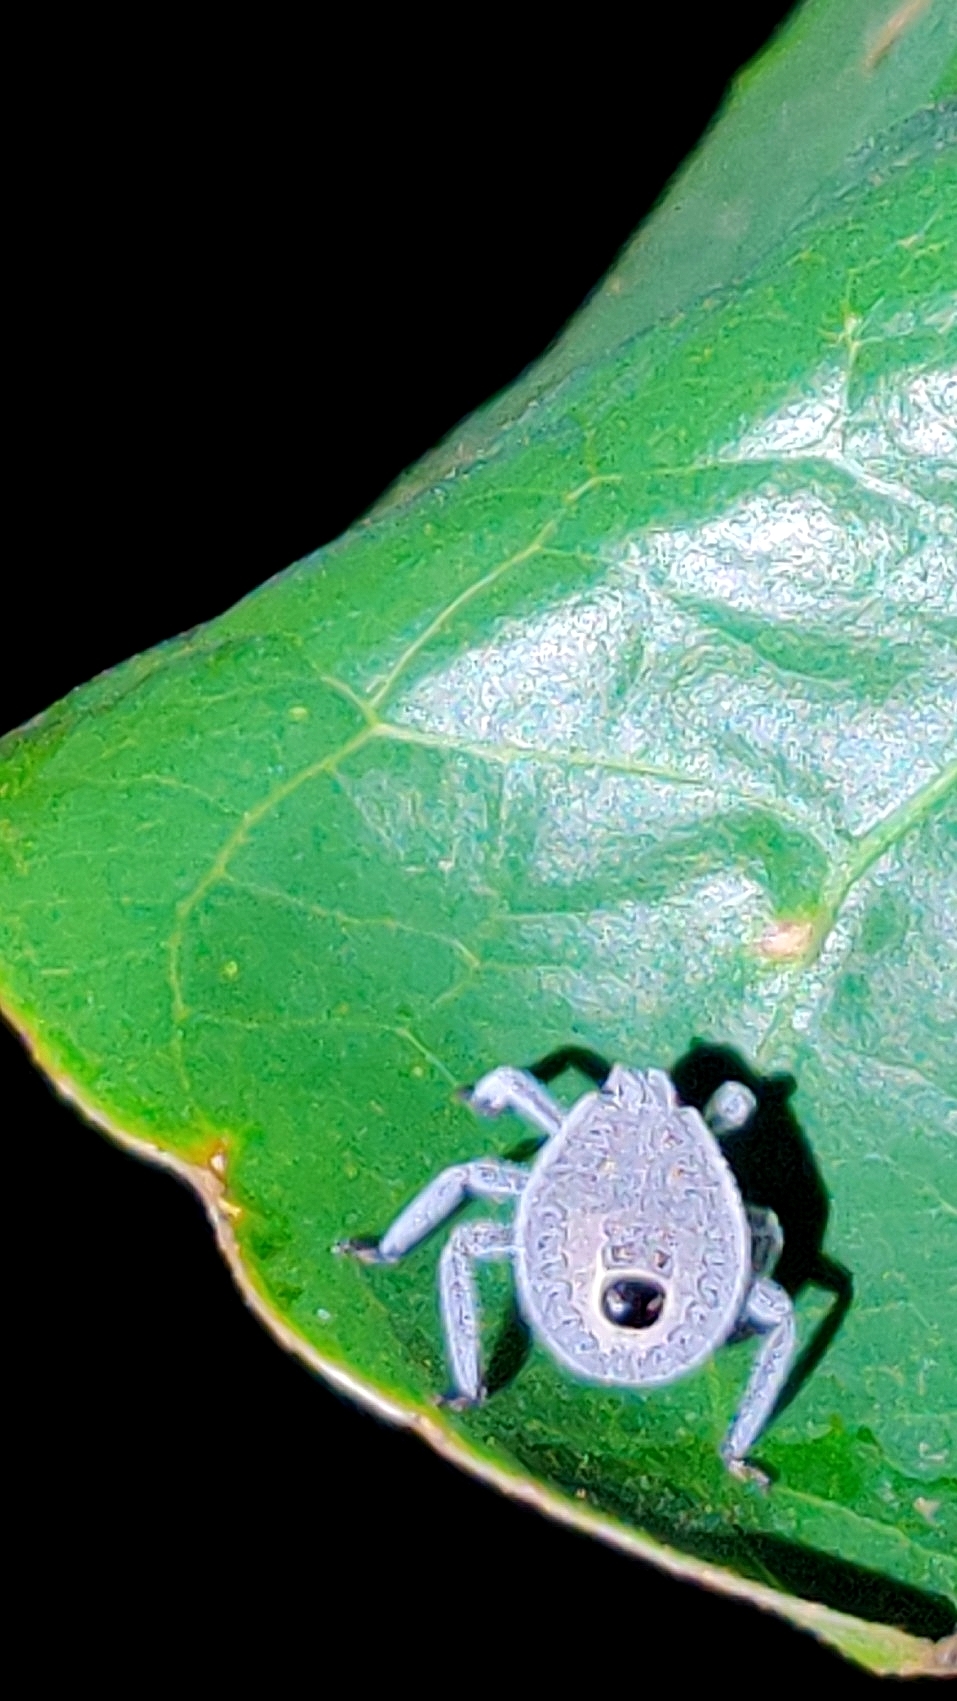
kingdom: Animalia
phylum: Arthropoda
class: Insecta
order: Hemiptera
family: Pentatomidae
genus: Erthesina
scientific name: Erthesina acuminata
